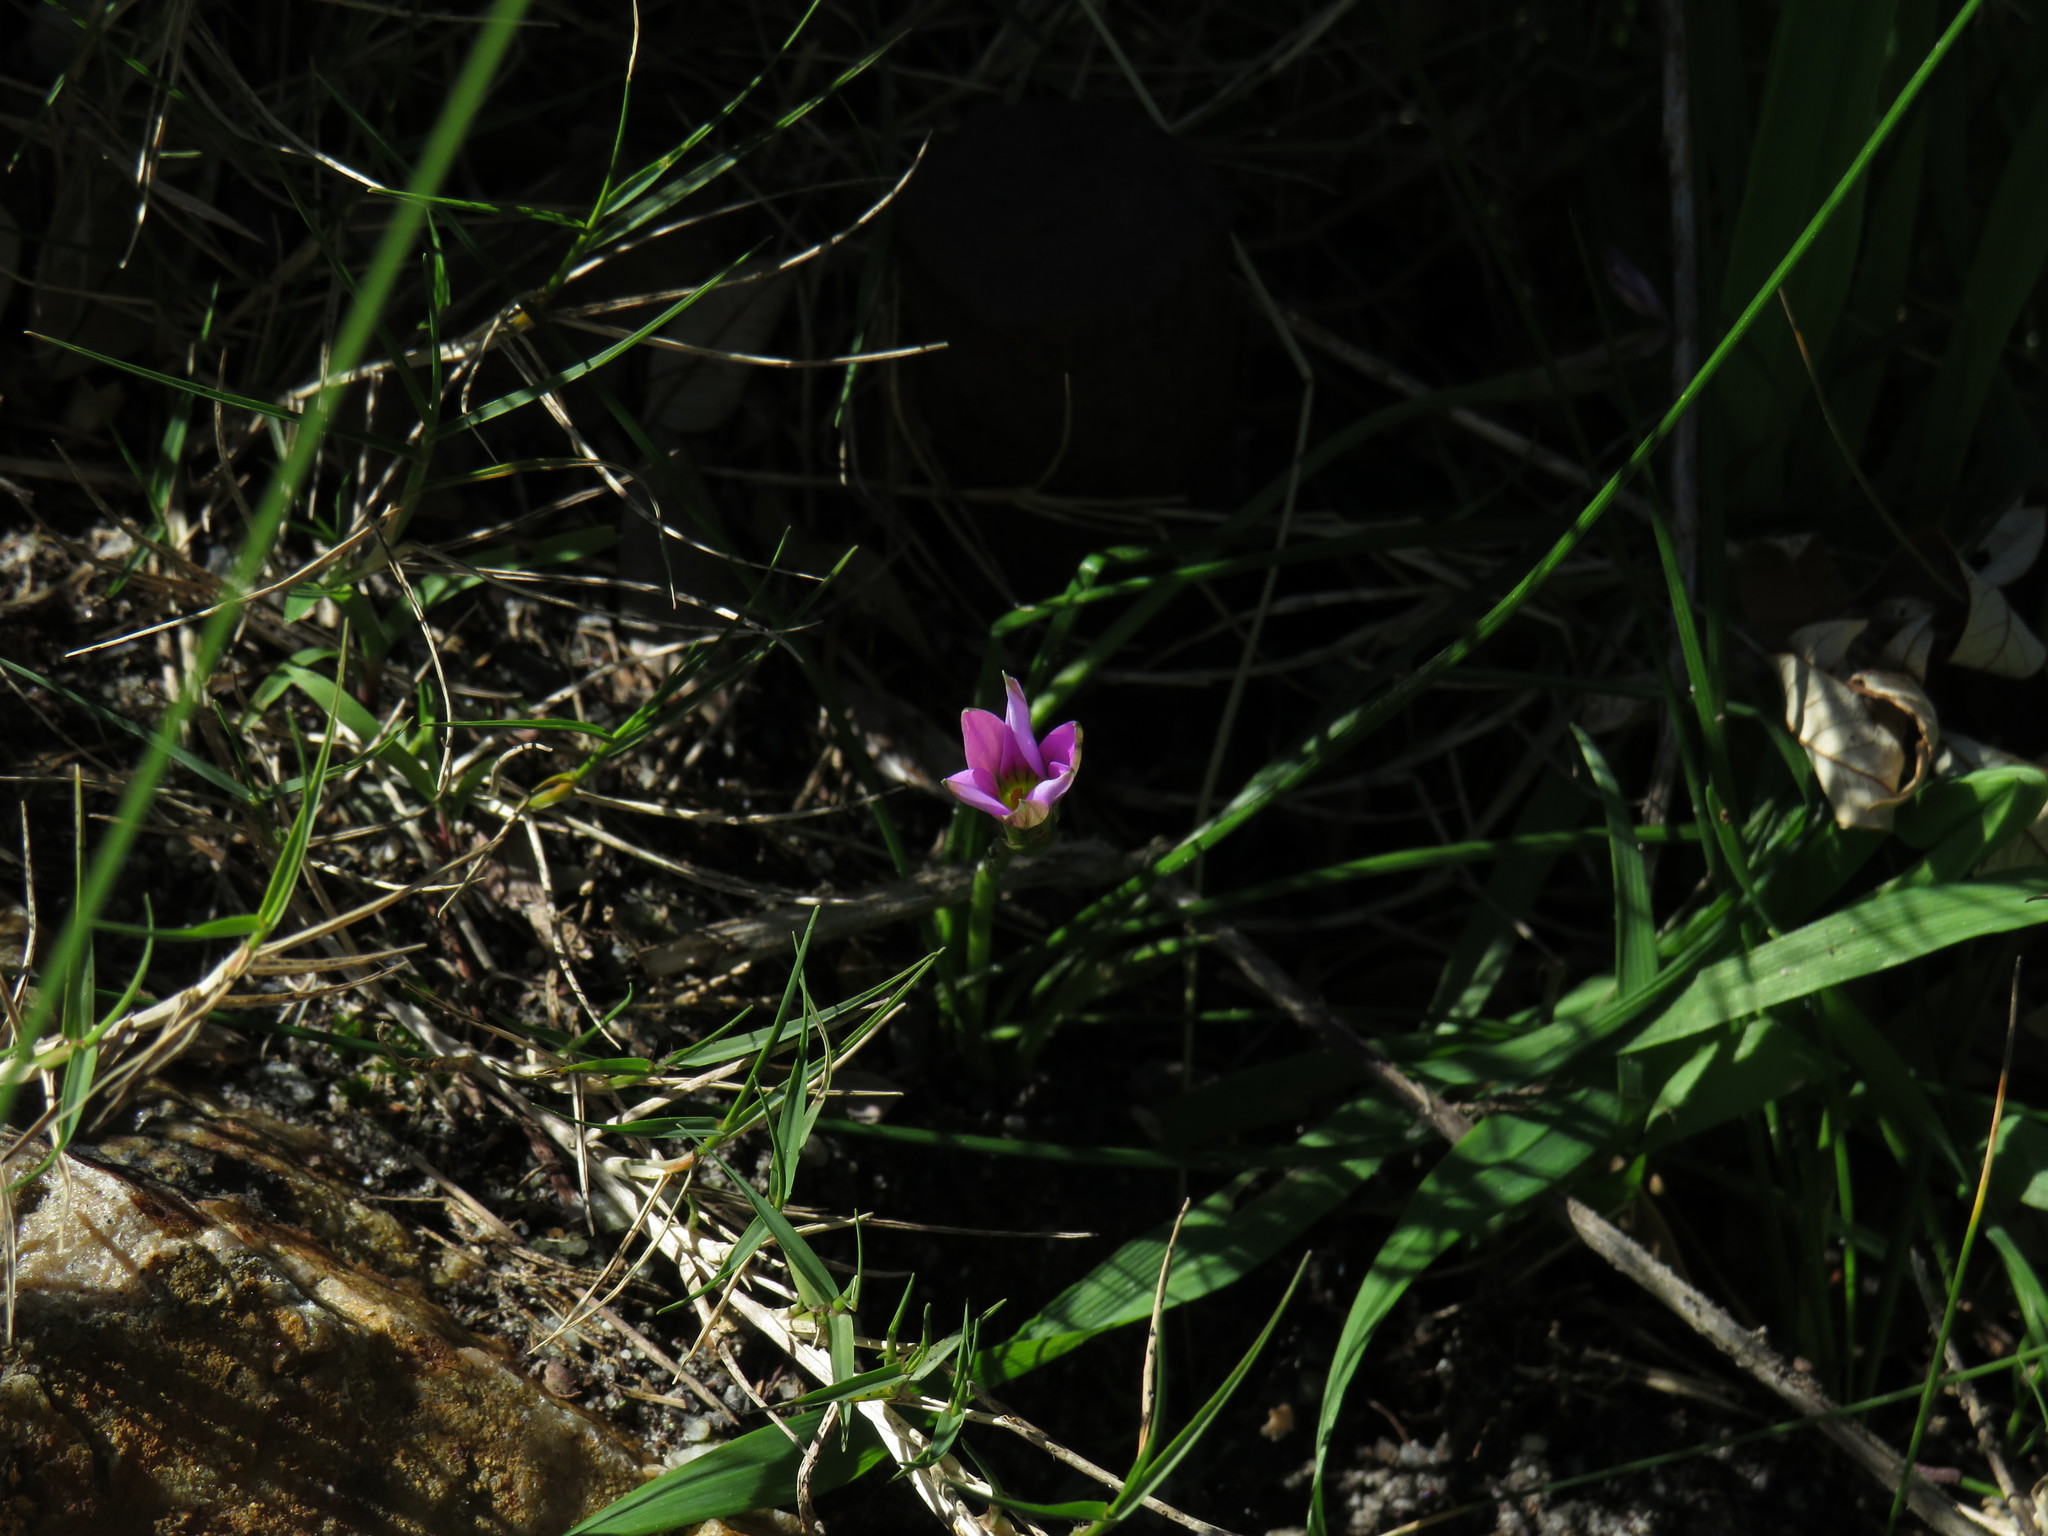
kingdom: Plantae
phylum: Tracheophyta
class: Liliopsida
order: Asparagales
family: Iridaceae
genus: Romulea
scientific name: Romulea rosea
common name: Oniongrass
